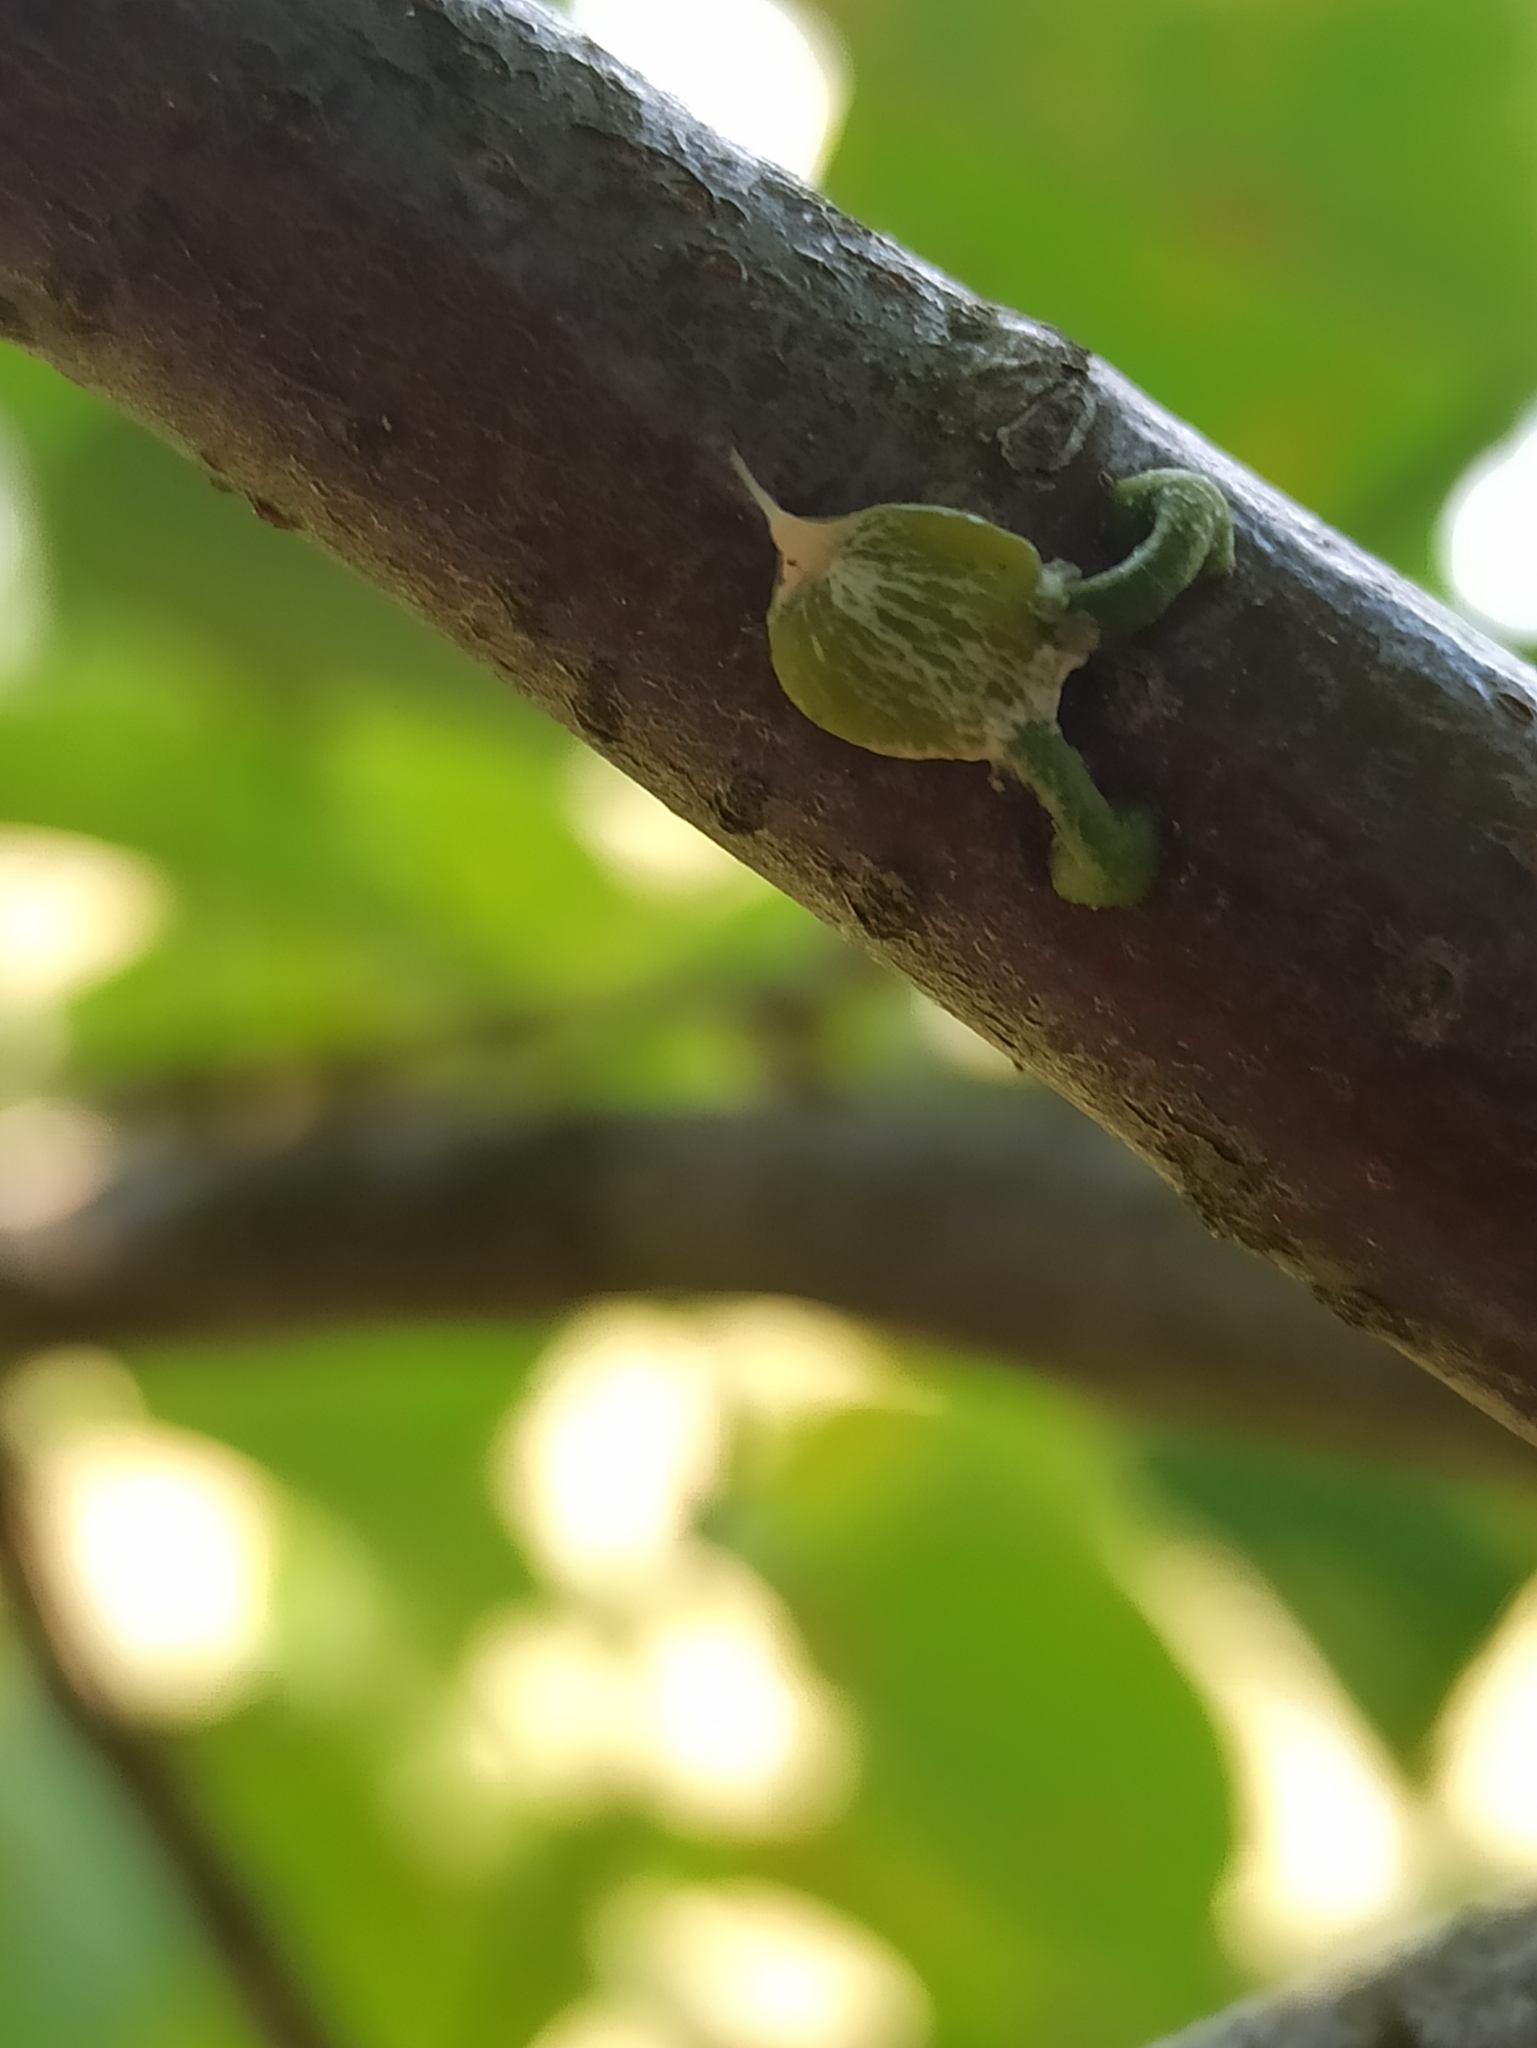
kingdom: Plantae
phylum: Tracheophyta
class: Magnoliopsida
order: Santalales
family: Viscaceae
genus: Viscum
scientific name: Viscum album
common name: Mistletoe
